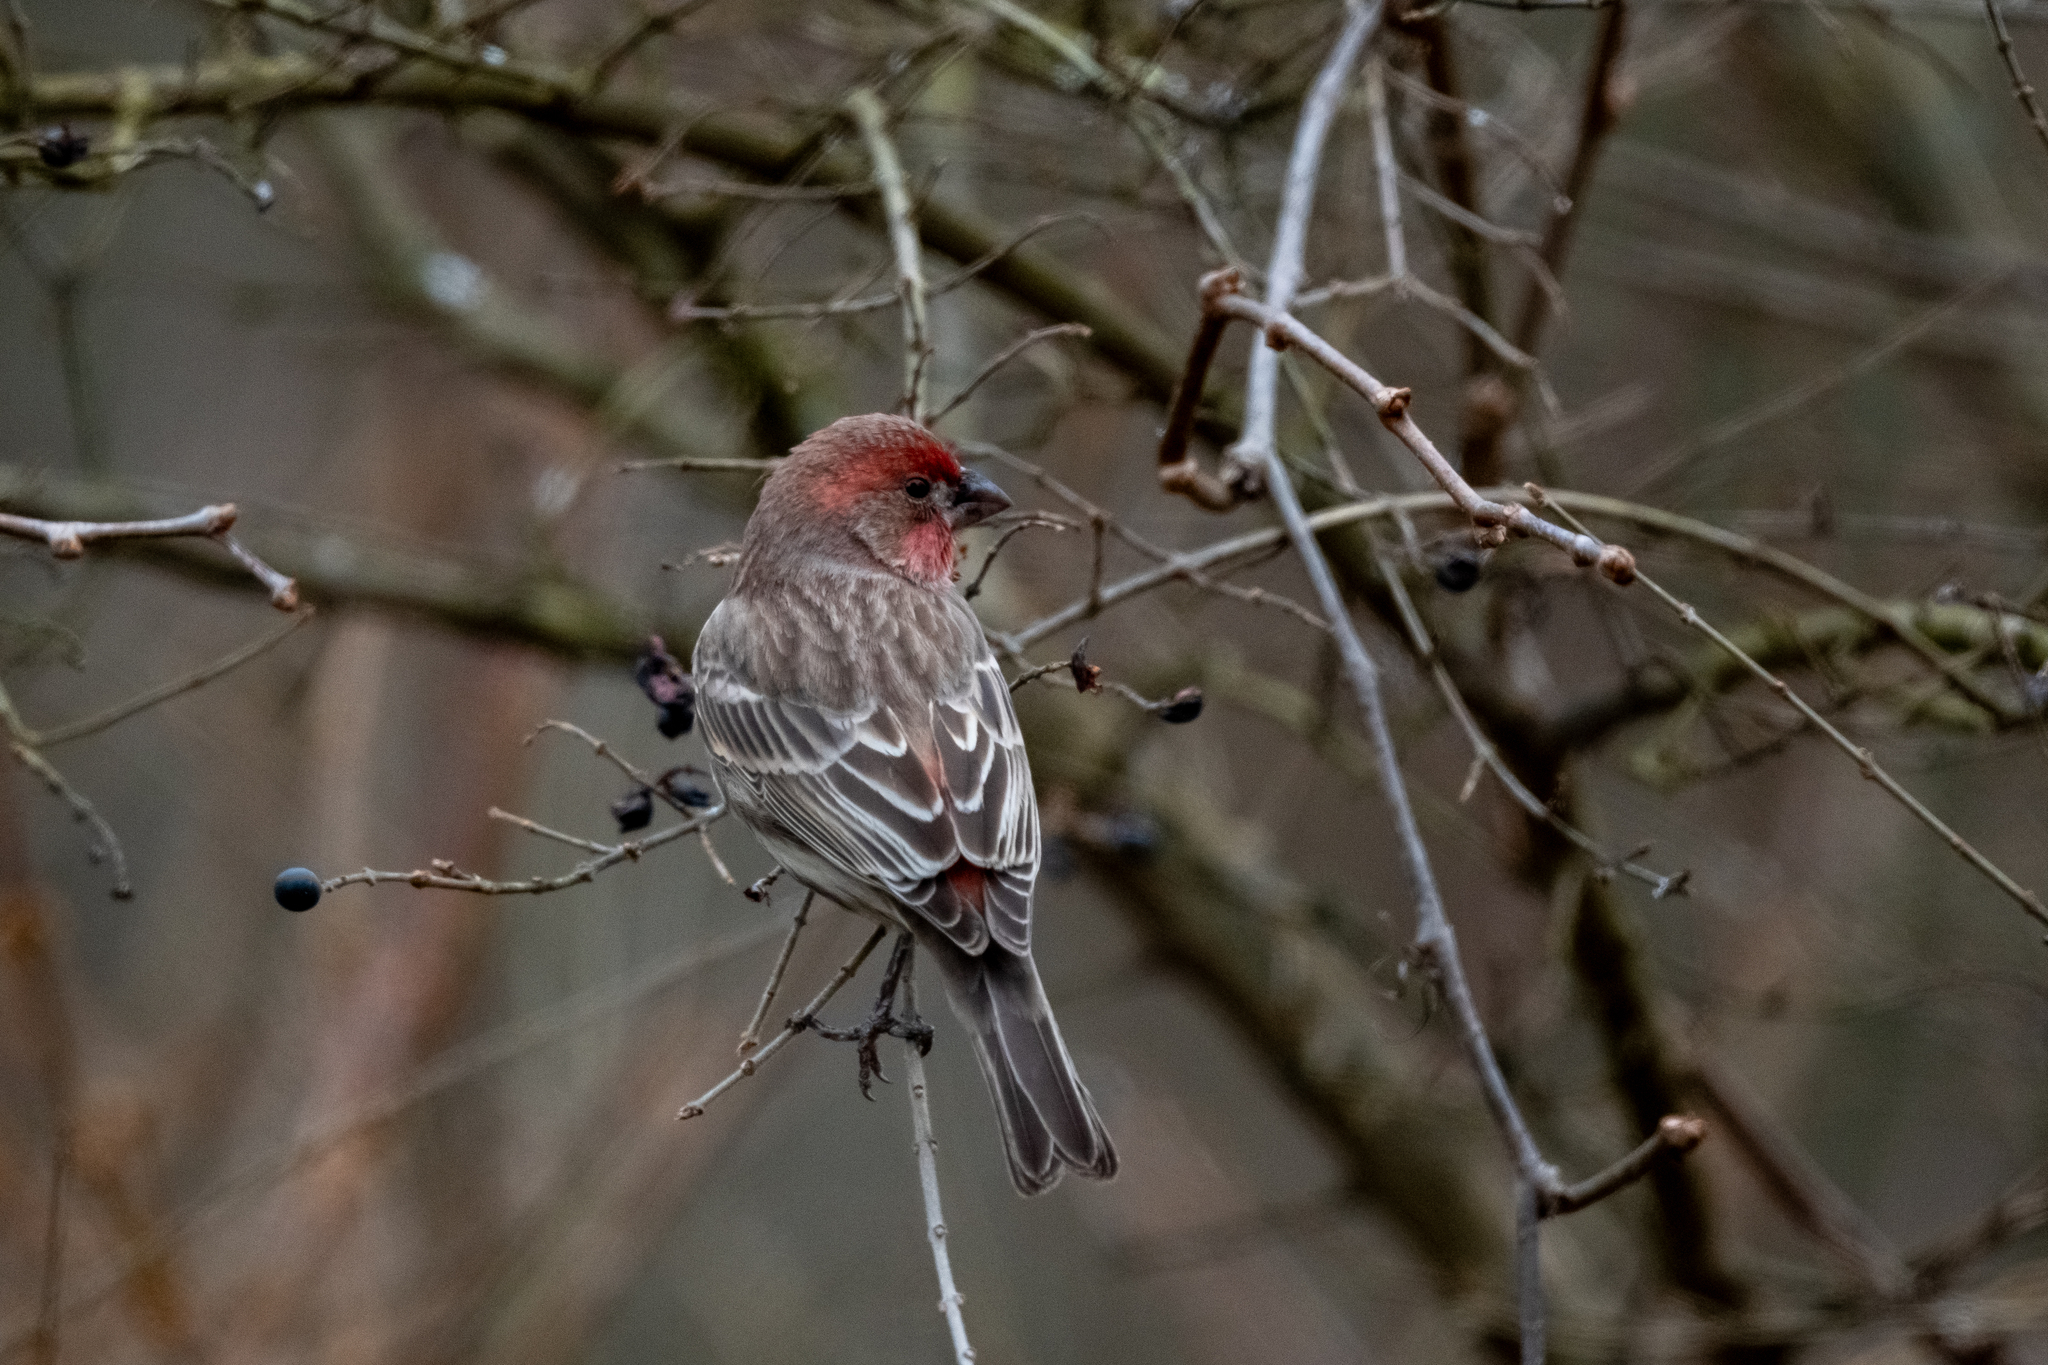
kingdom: Animalia
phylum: Chordata
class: Aves
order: Passeriformes
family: Fringillidae
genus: Haemorhous
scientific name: Haemorhous mexicanus
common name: House finch
